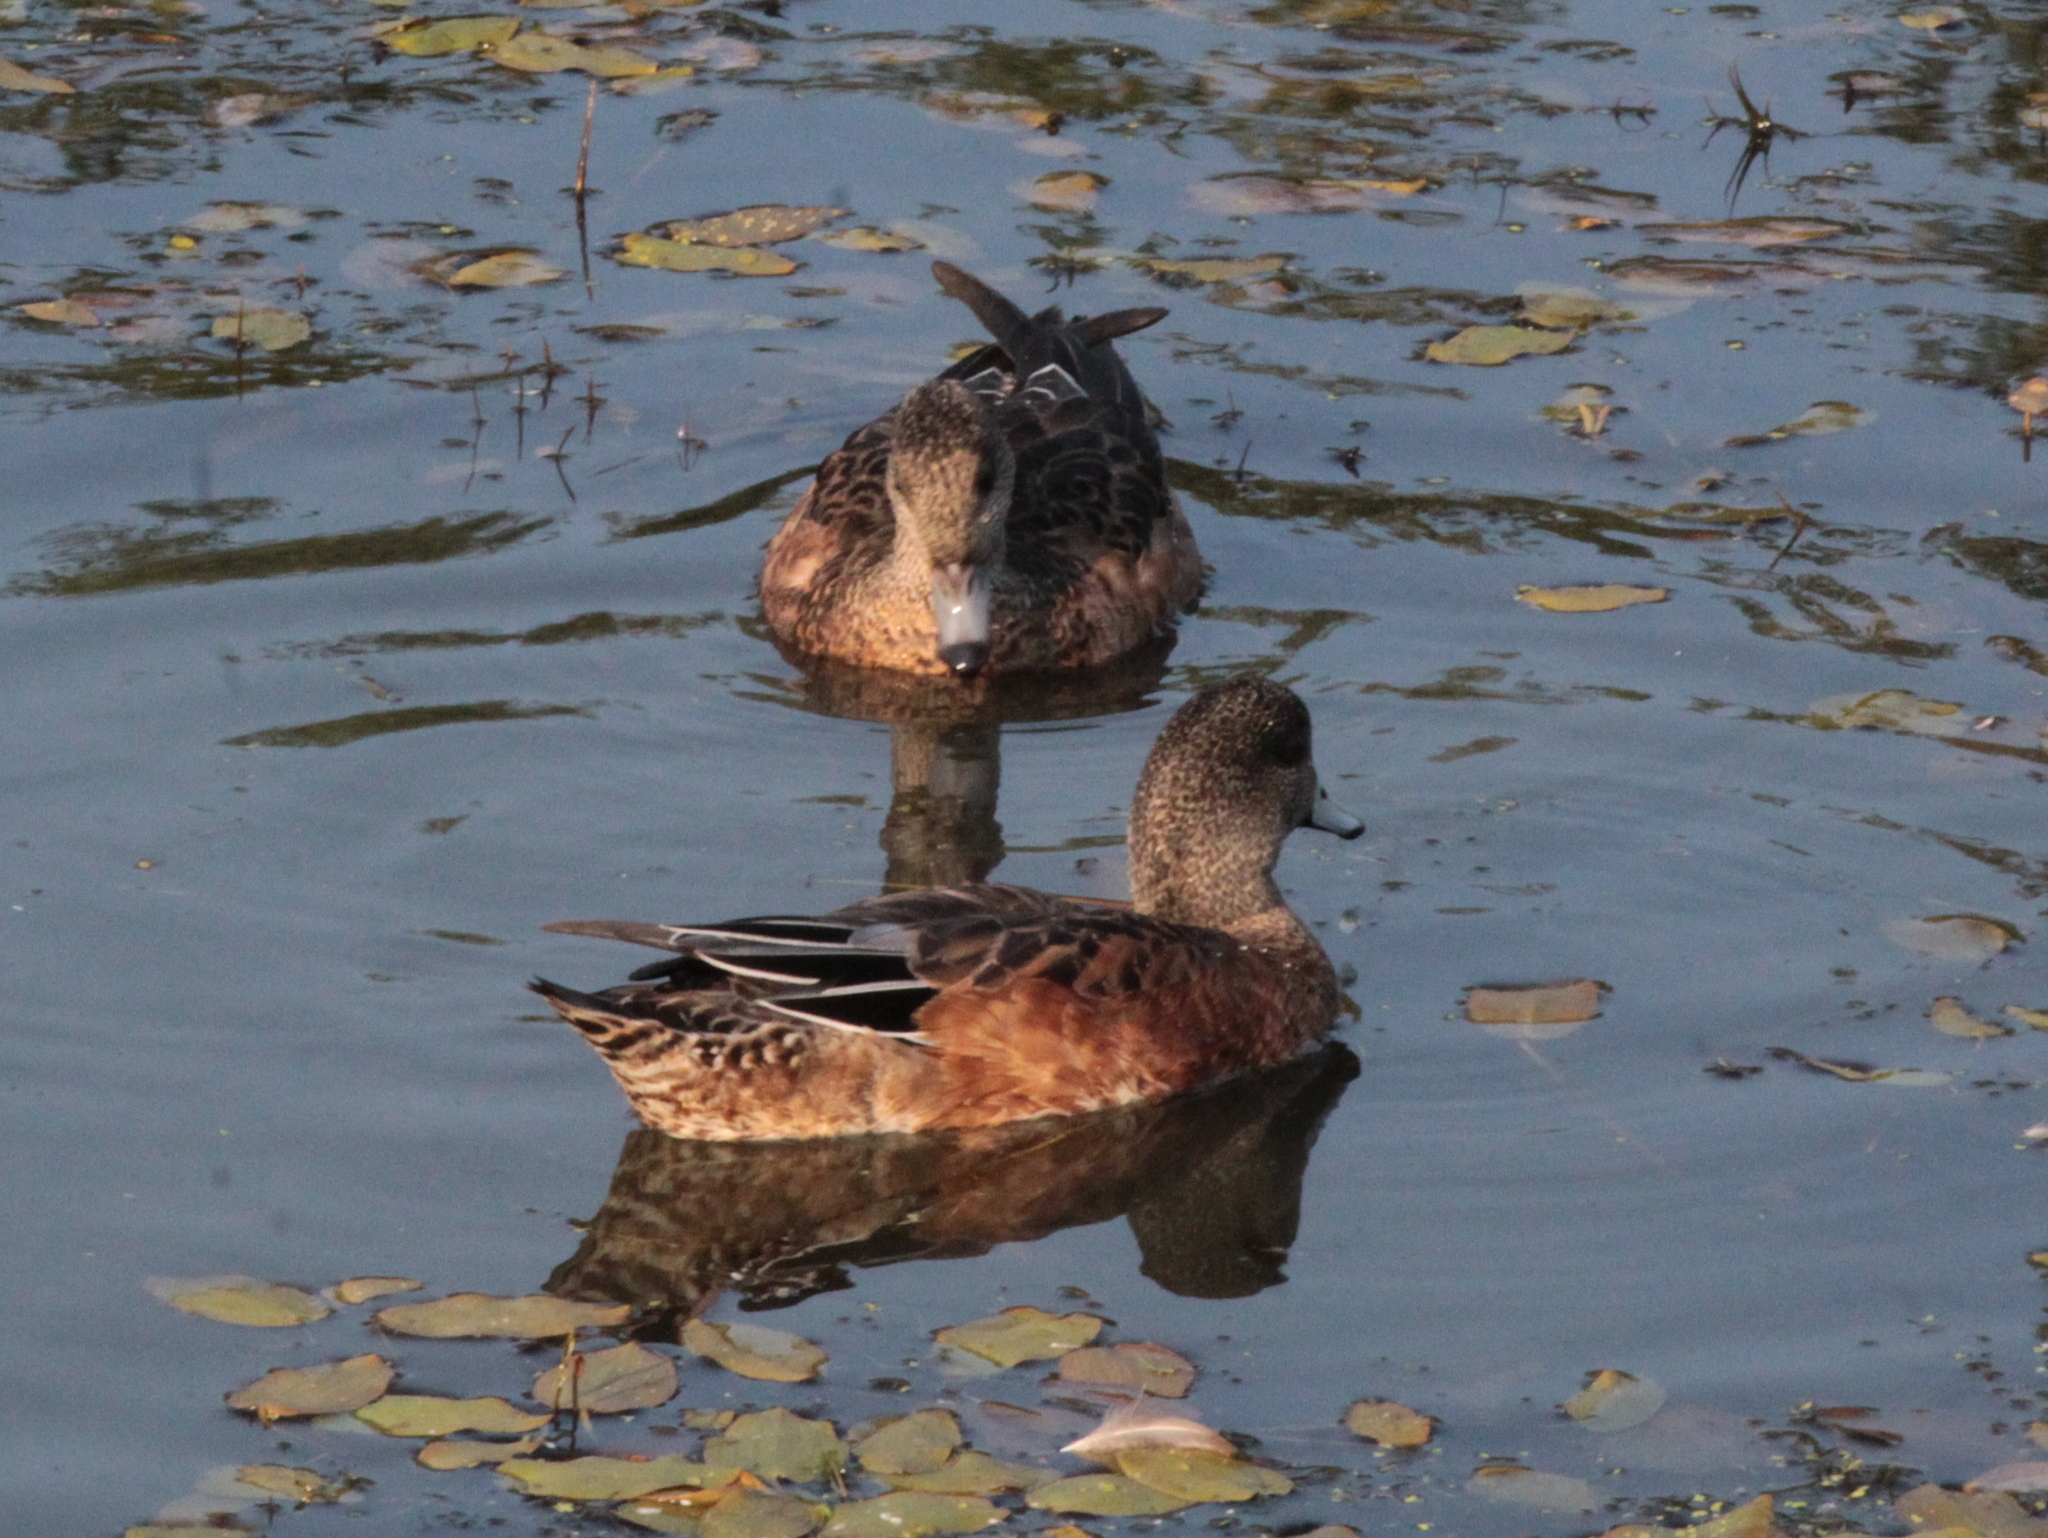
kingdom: Animalia
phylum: Chordata
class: Aves
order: Anseriformes
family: Anatidae
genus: Mareca
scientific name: Mareca americana
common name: American wigeon
